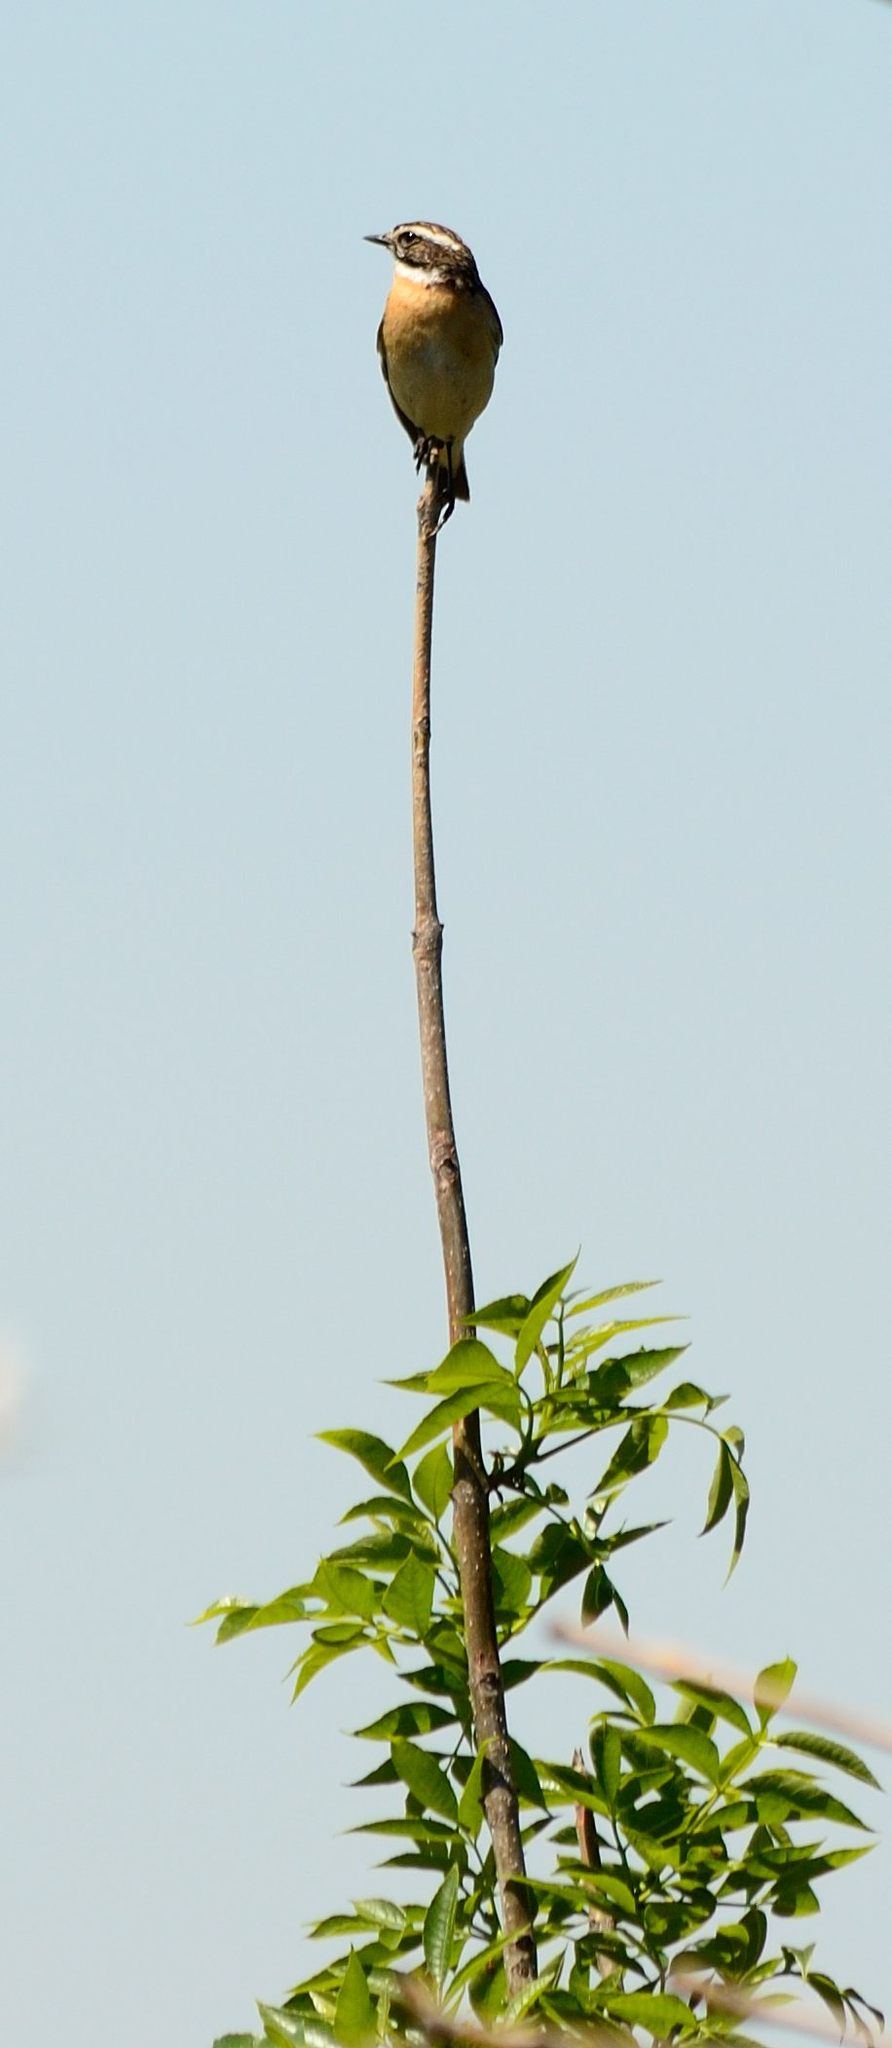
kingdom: Animalia
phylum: Chordata
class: Aves
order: Passeriformes
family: Muscicapidae
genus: Saxicola
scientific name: Saxicola rubetra
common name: Whinchat
